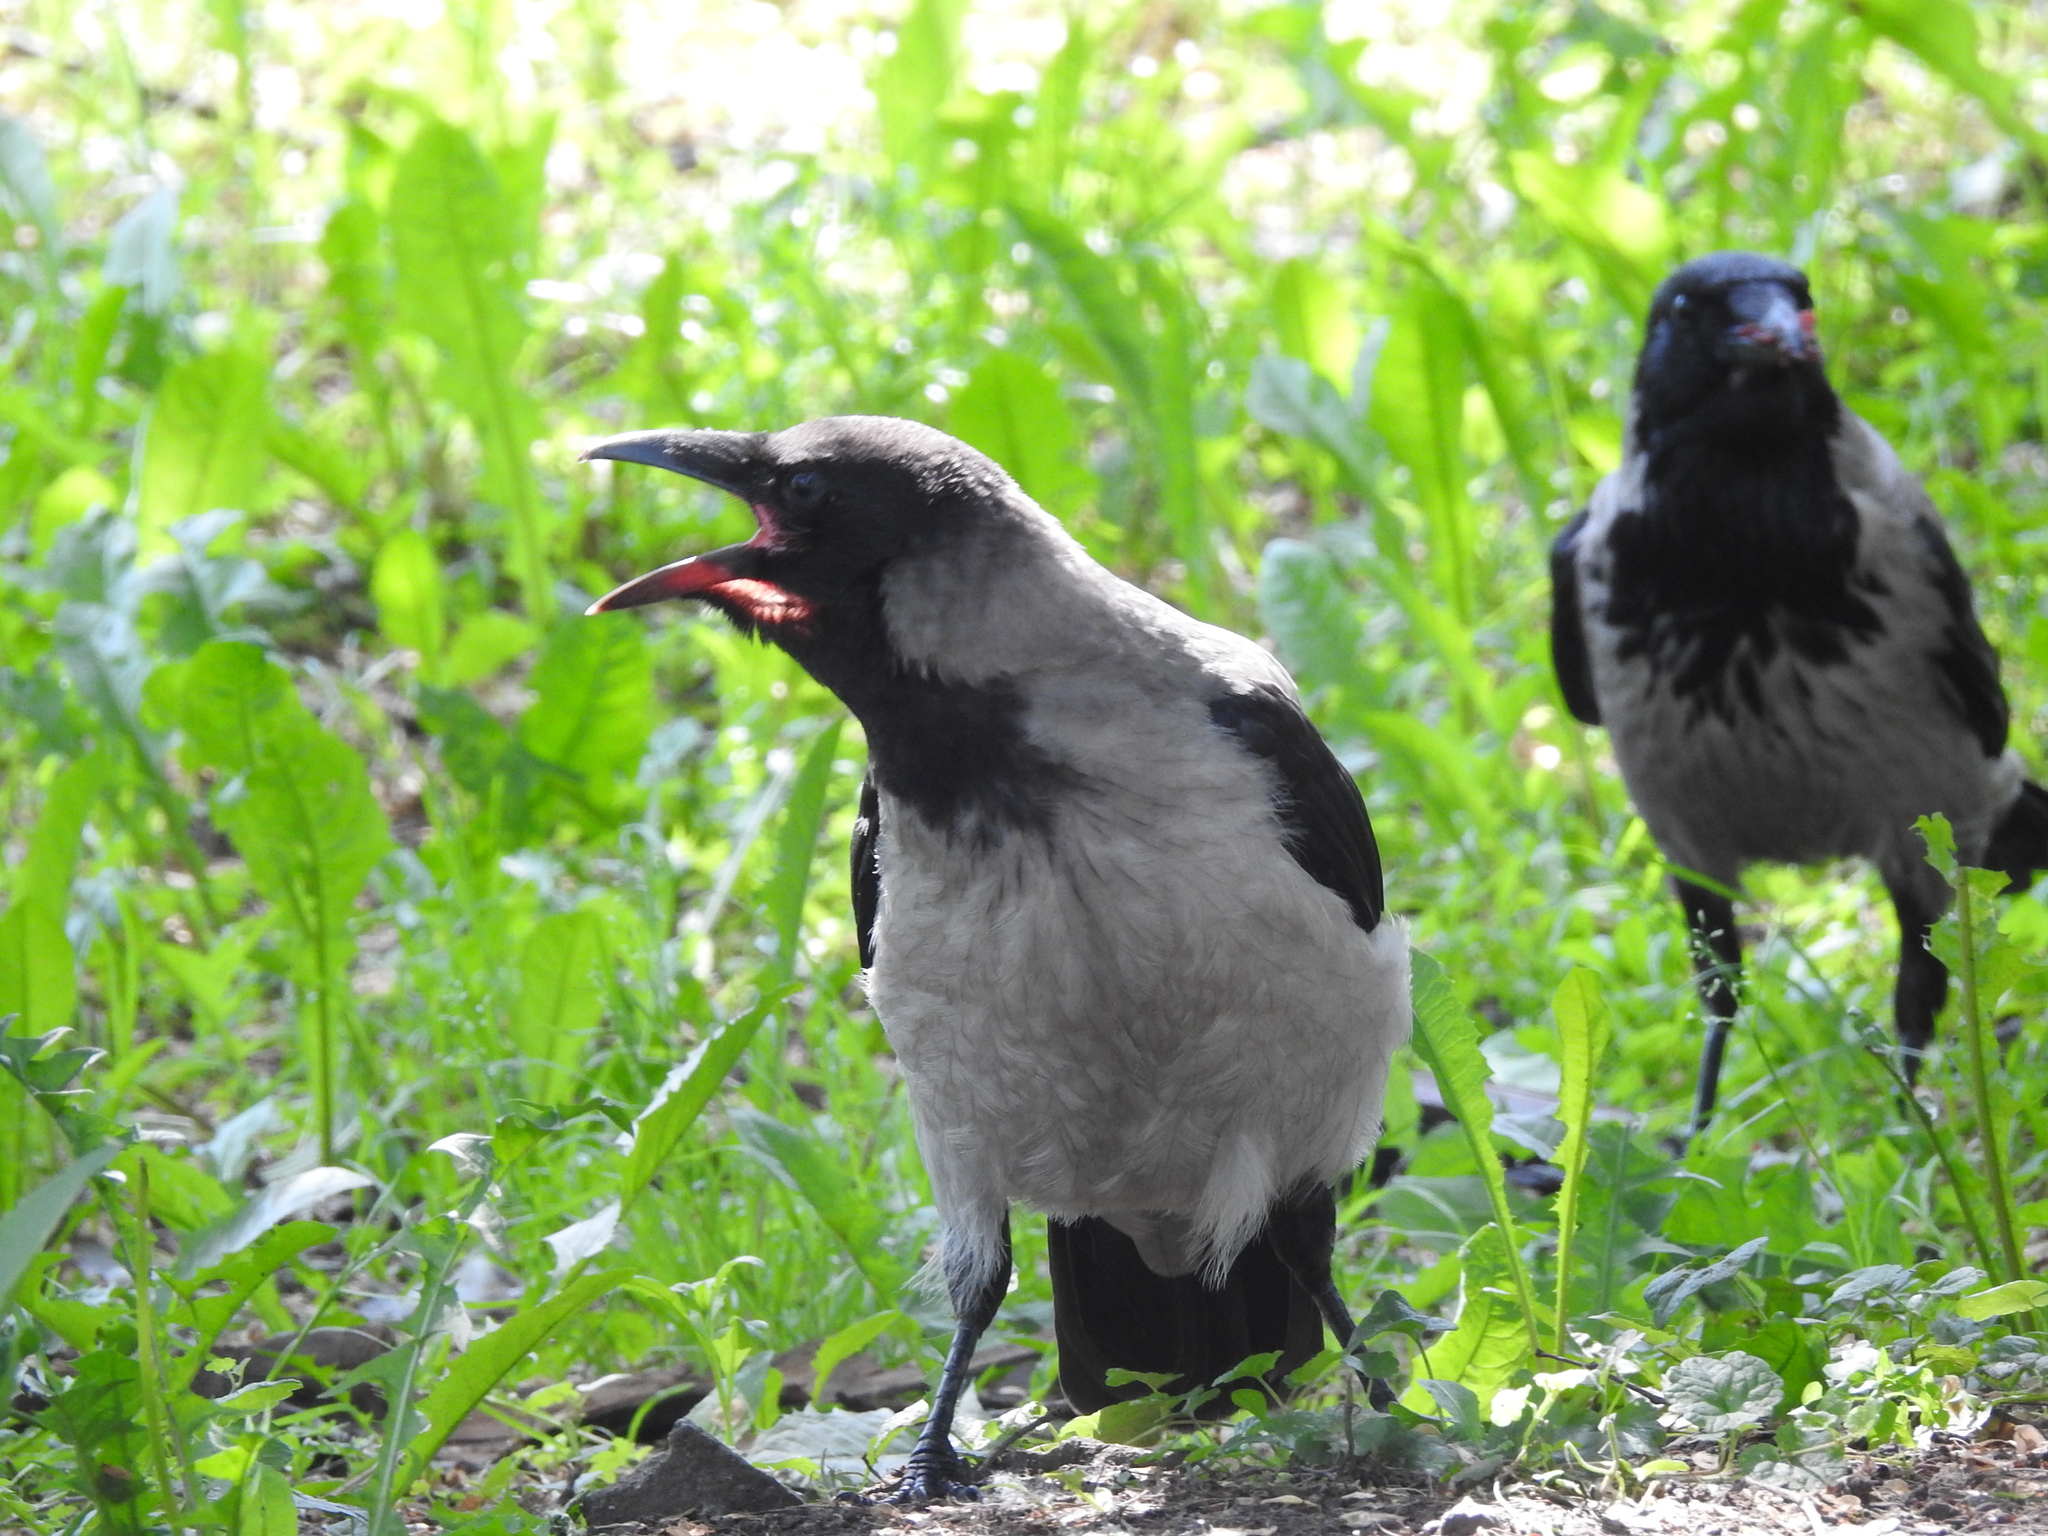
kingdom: Animalia
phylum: Chordata
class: Aves
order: Passeriformes
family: Corvidae
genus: Corvus
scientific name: Corvus cornix
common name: Hooded crow
